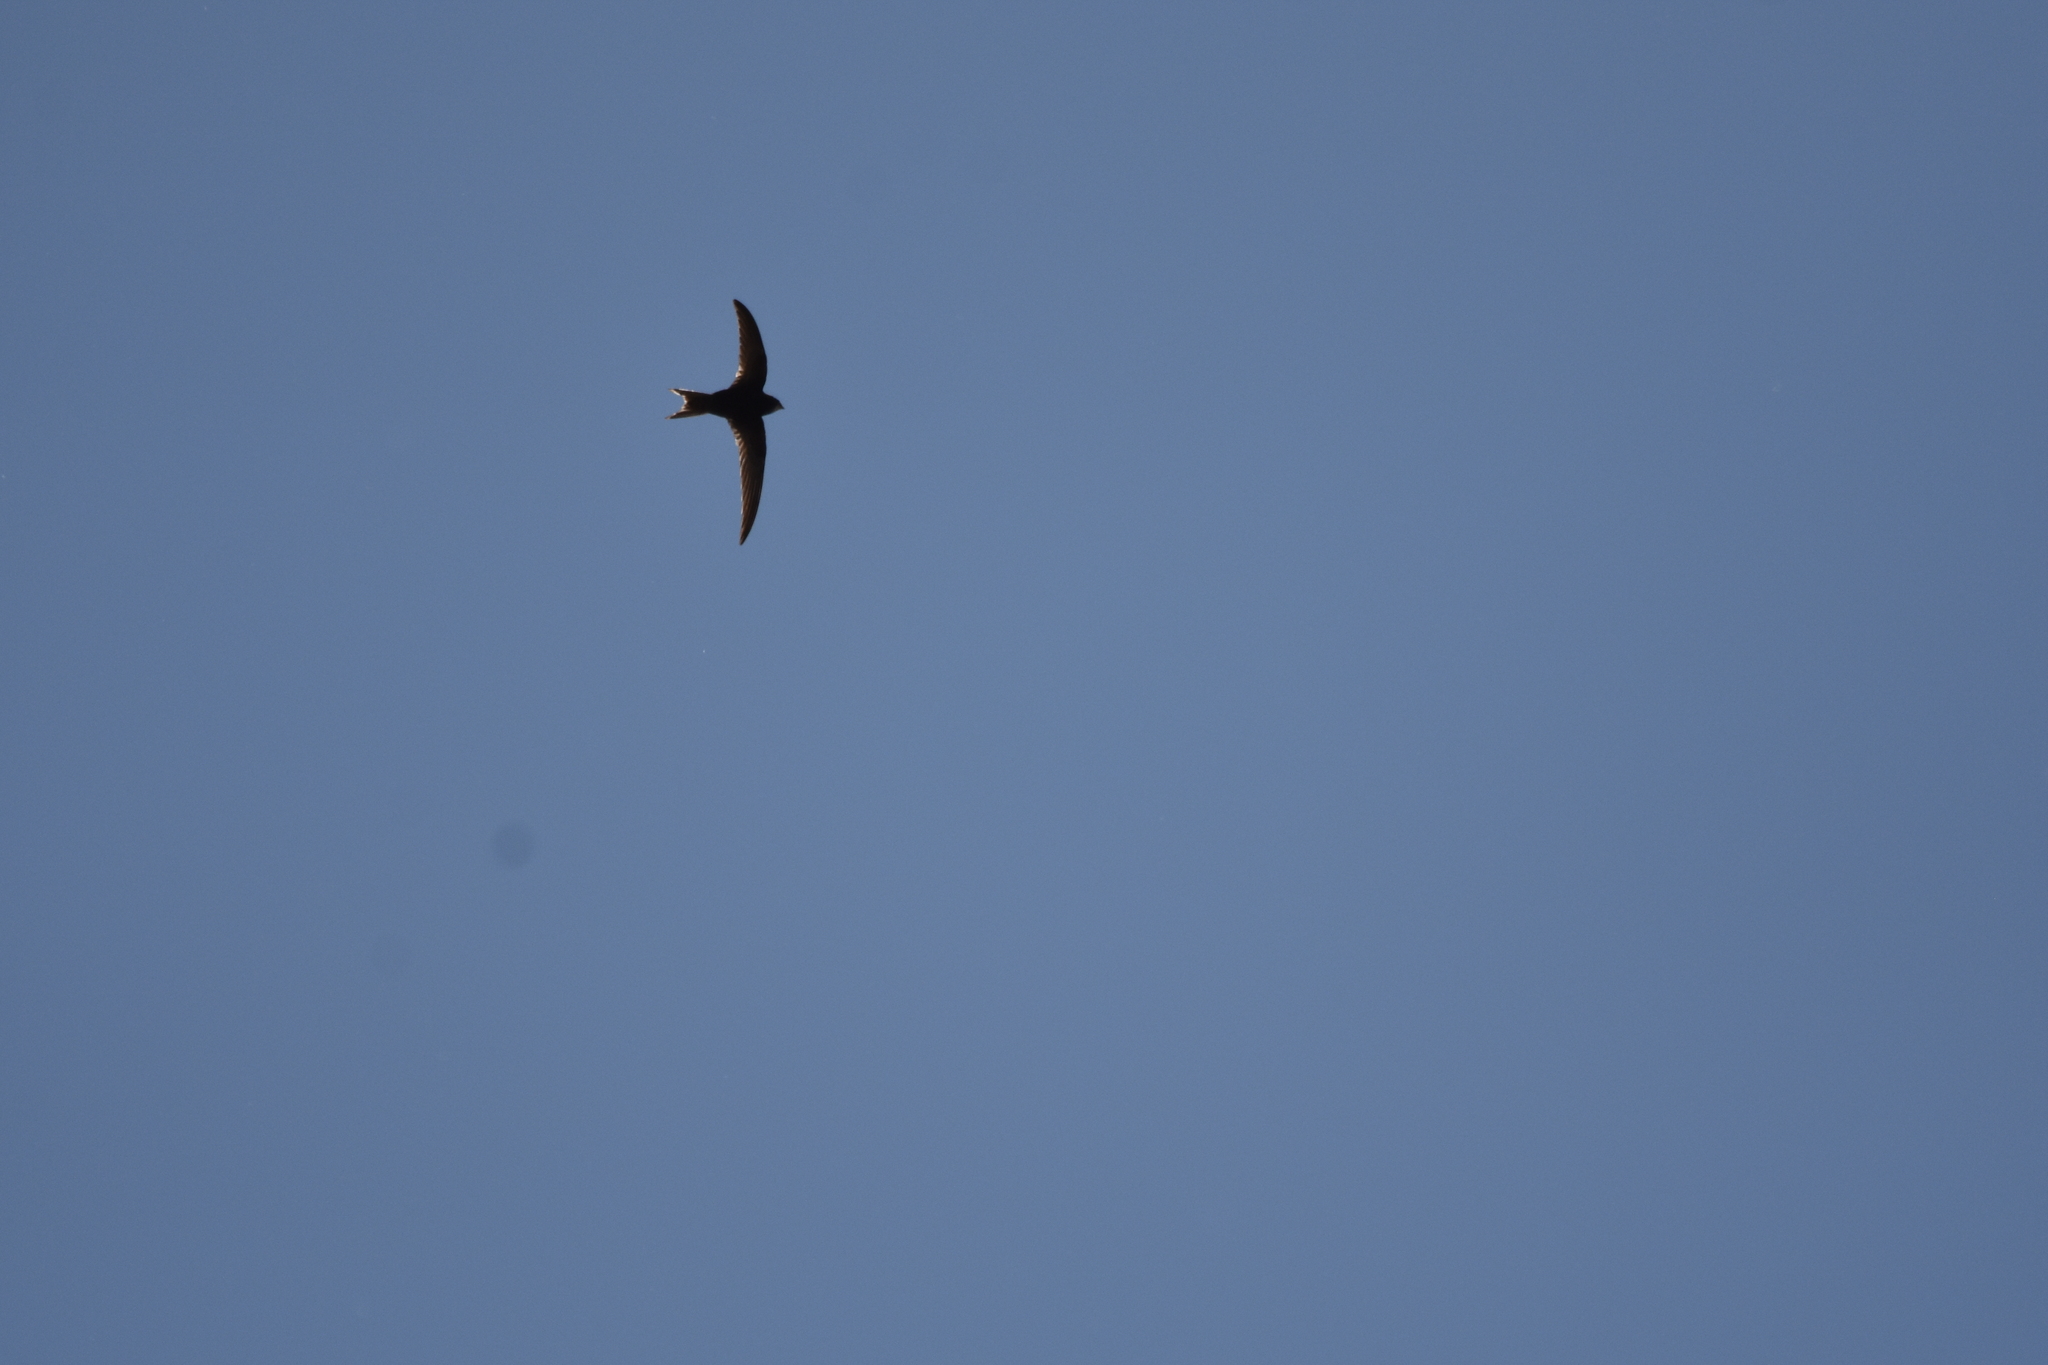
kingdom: Animalia
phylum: Chordata
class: Aves
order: Apodiformes
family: Apodidae
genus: Apus
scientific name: Apus apus
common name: Common swift
